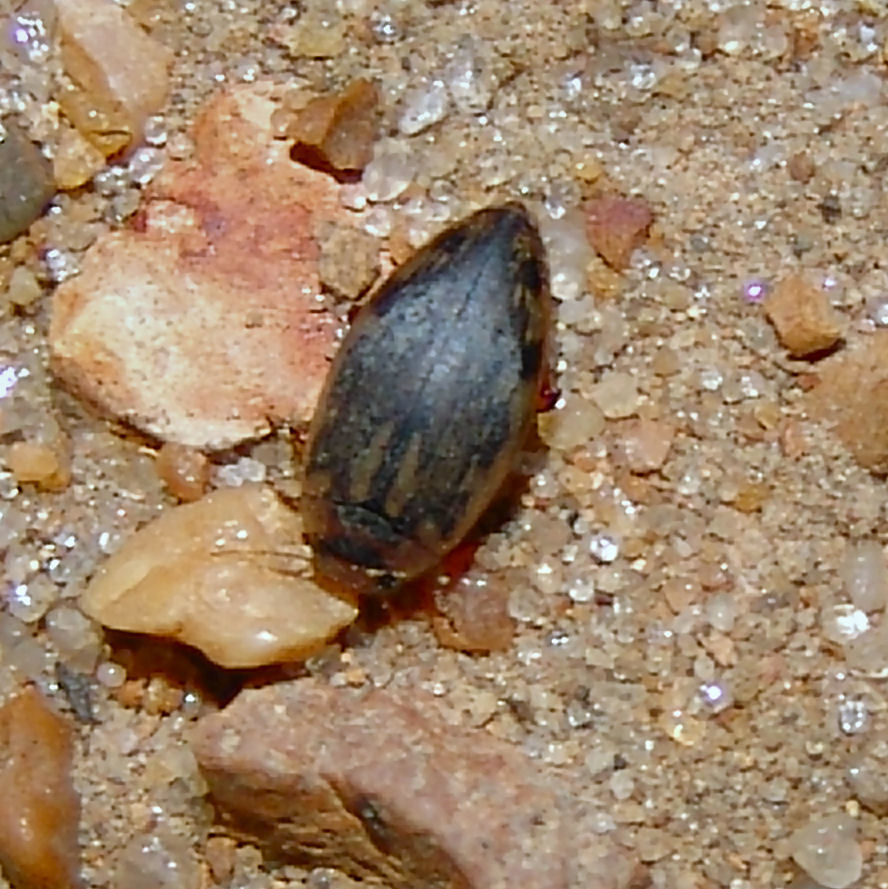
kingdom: Animalia
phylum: Arthropoda
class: Insecta
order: Coleoptera
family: Dytiscidae
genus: Coptotomus
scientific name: Coptotomus
